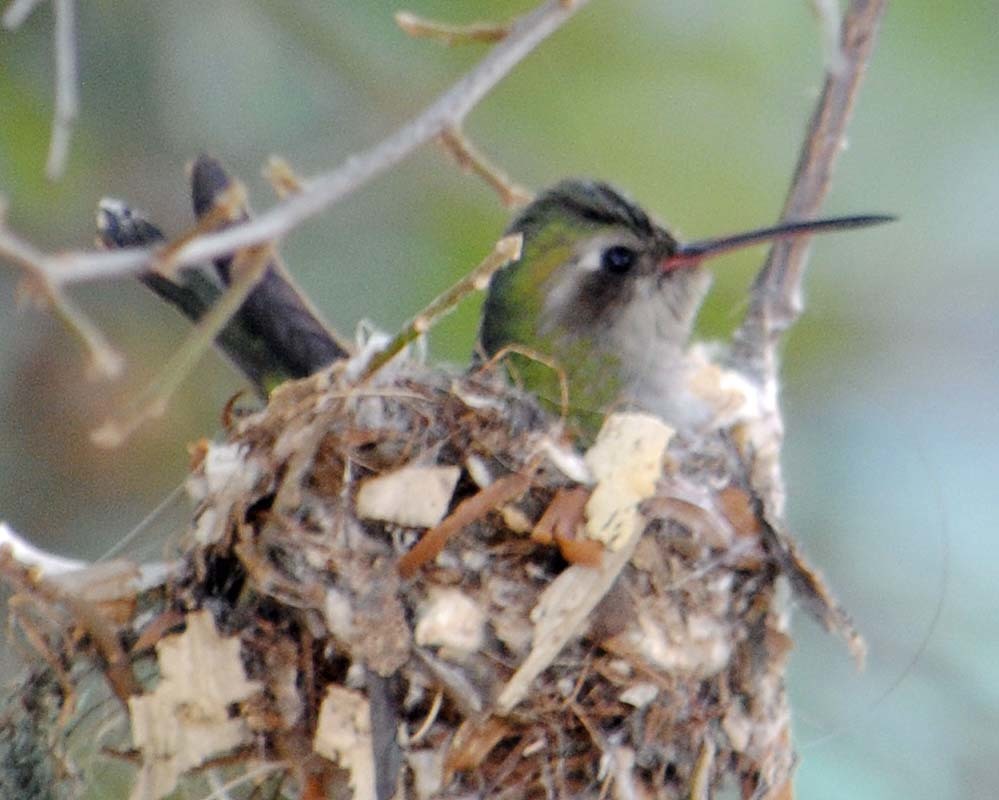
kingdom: Animalia
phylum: Chordata
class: Aves
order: Apodiformes
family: Trochilidae
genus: Cynanthus
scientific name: Cynanthus latirostris
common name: Broad-billed hummingbird
